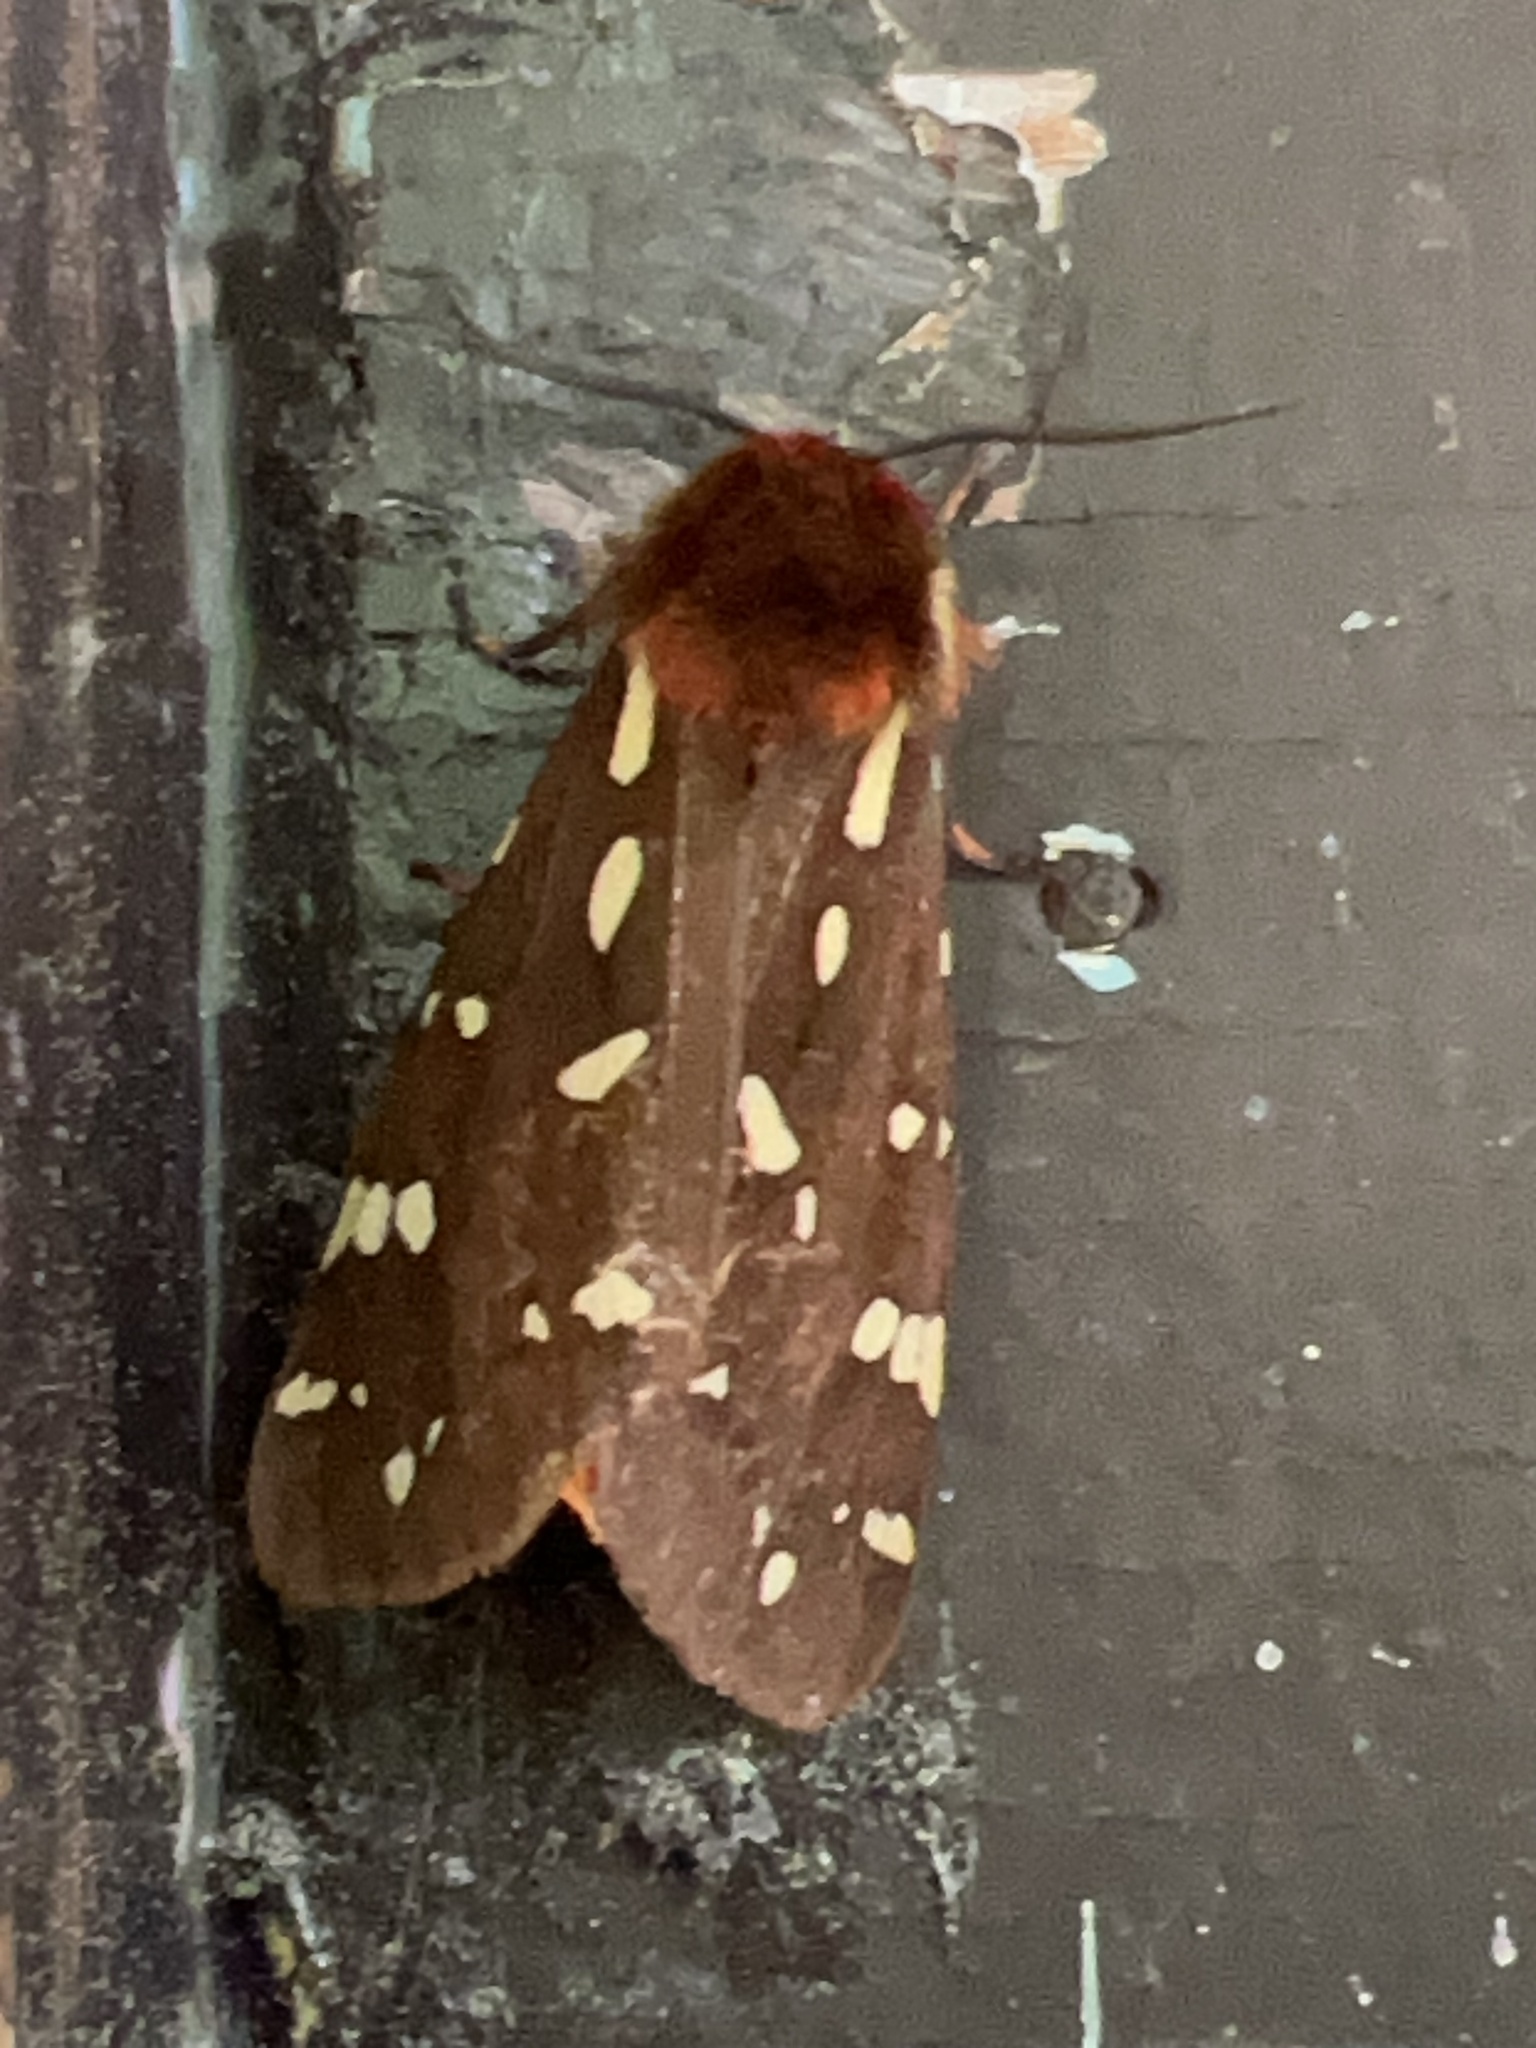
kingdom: Animalia
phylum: Arthropoda
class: Insecta
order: Lepidoptera
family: Erebidae
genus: Arctia
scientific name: Arctia parthenos
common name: St. lawrence tiger moth
